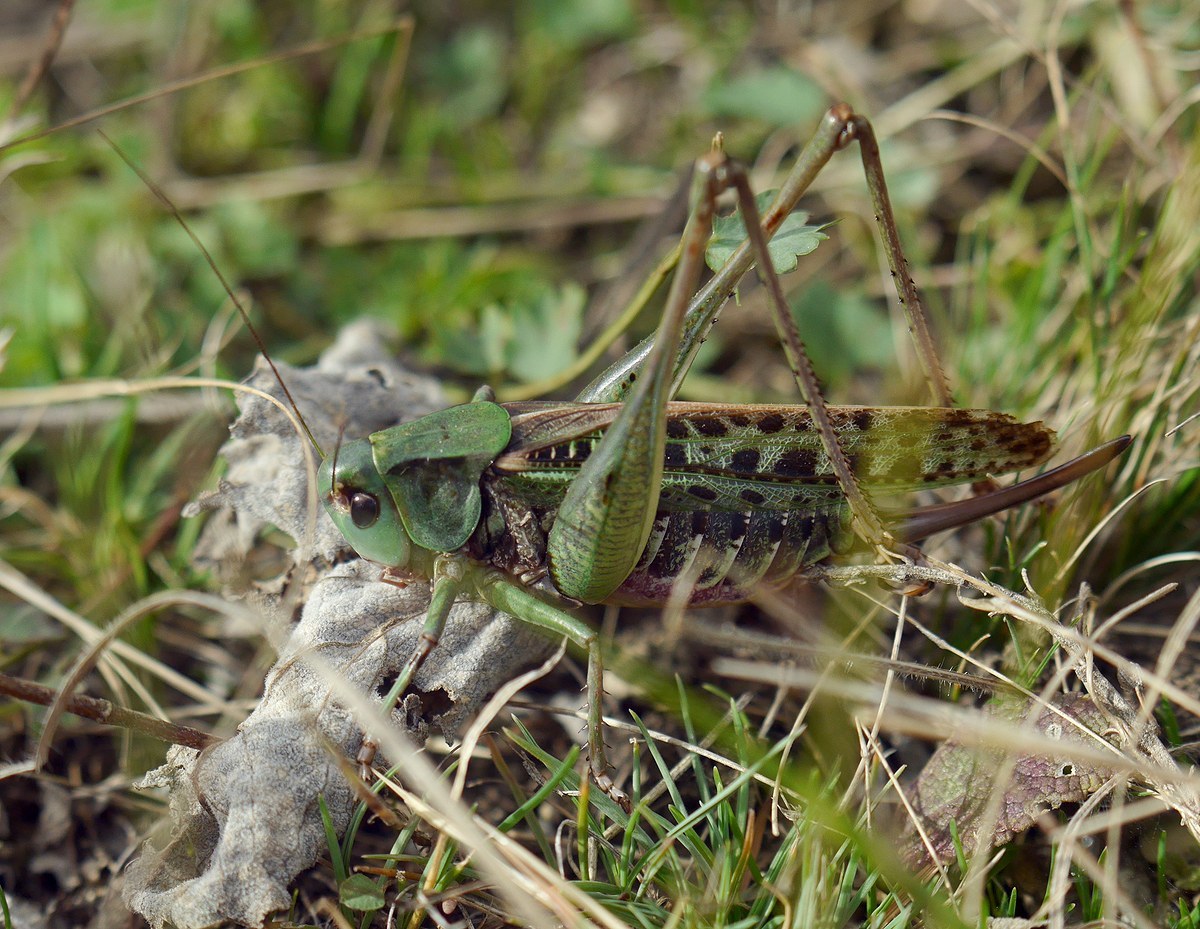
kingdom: Animalia
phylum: Arthropoda
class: Insecta
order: Orthoptera
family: Tettigoniidae
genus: Decticus
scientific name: Decticus verrucivorus
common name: Wart-biter
